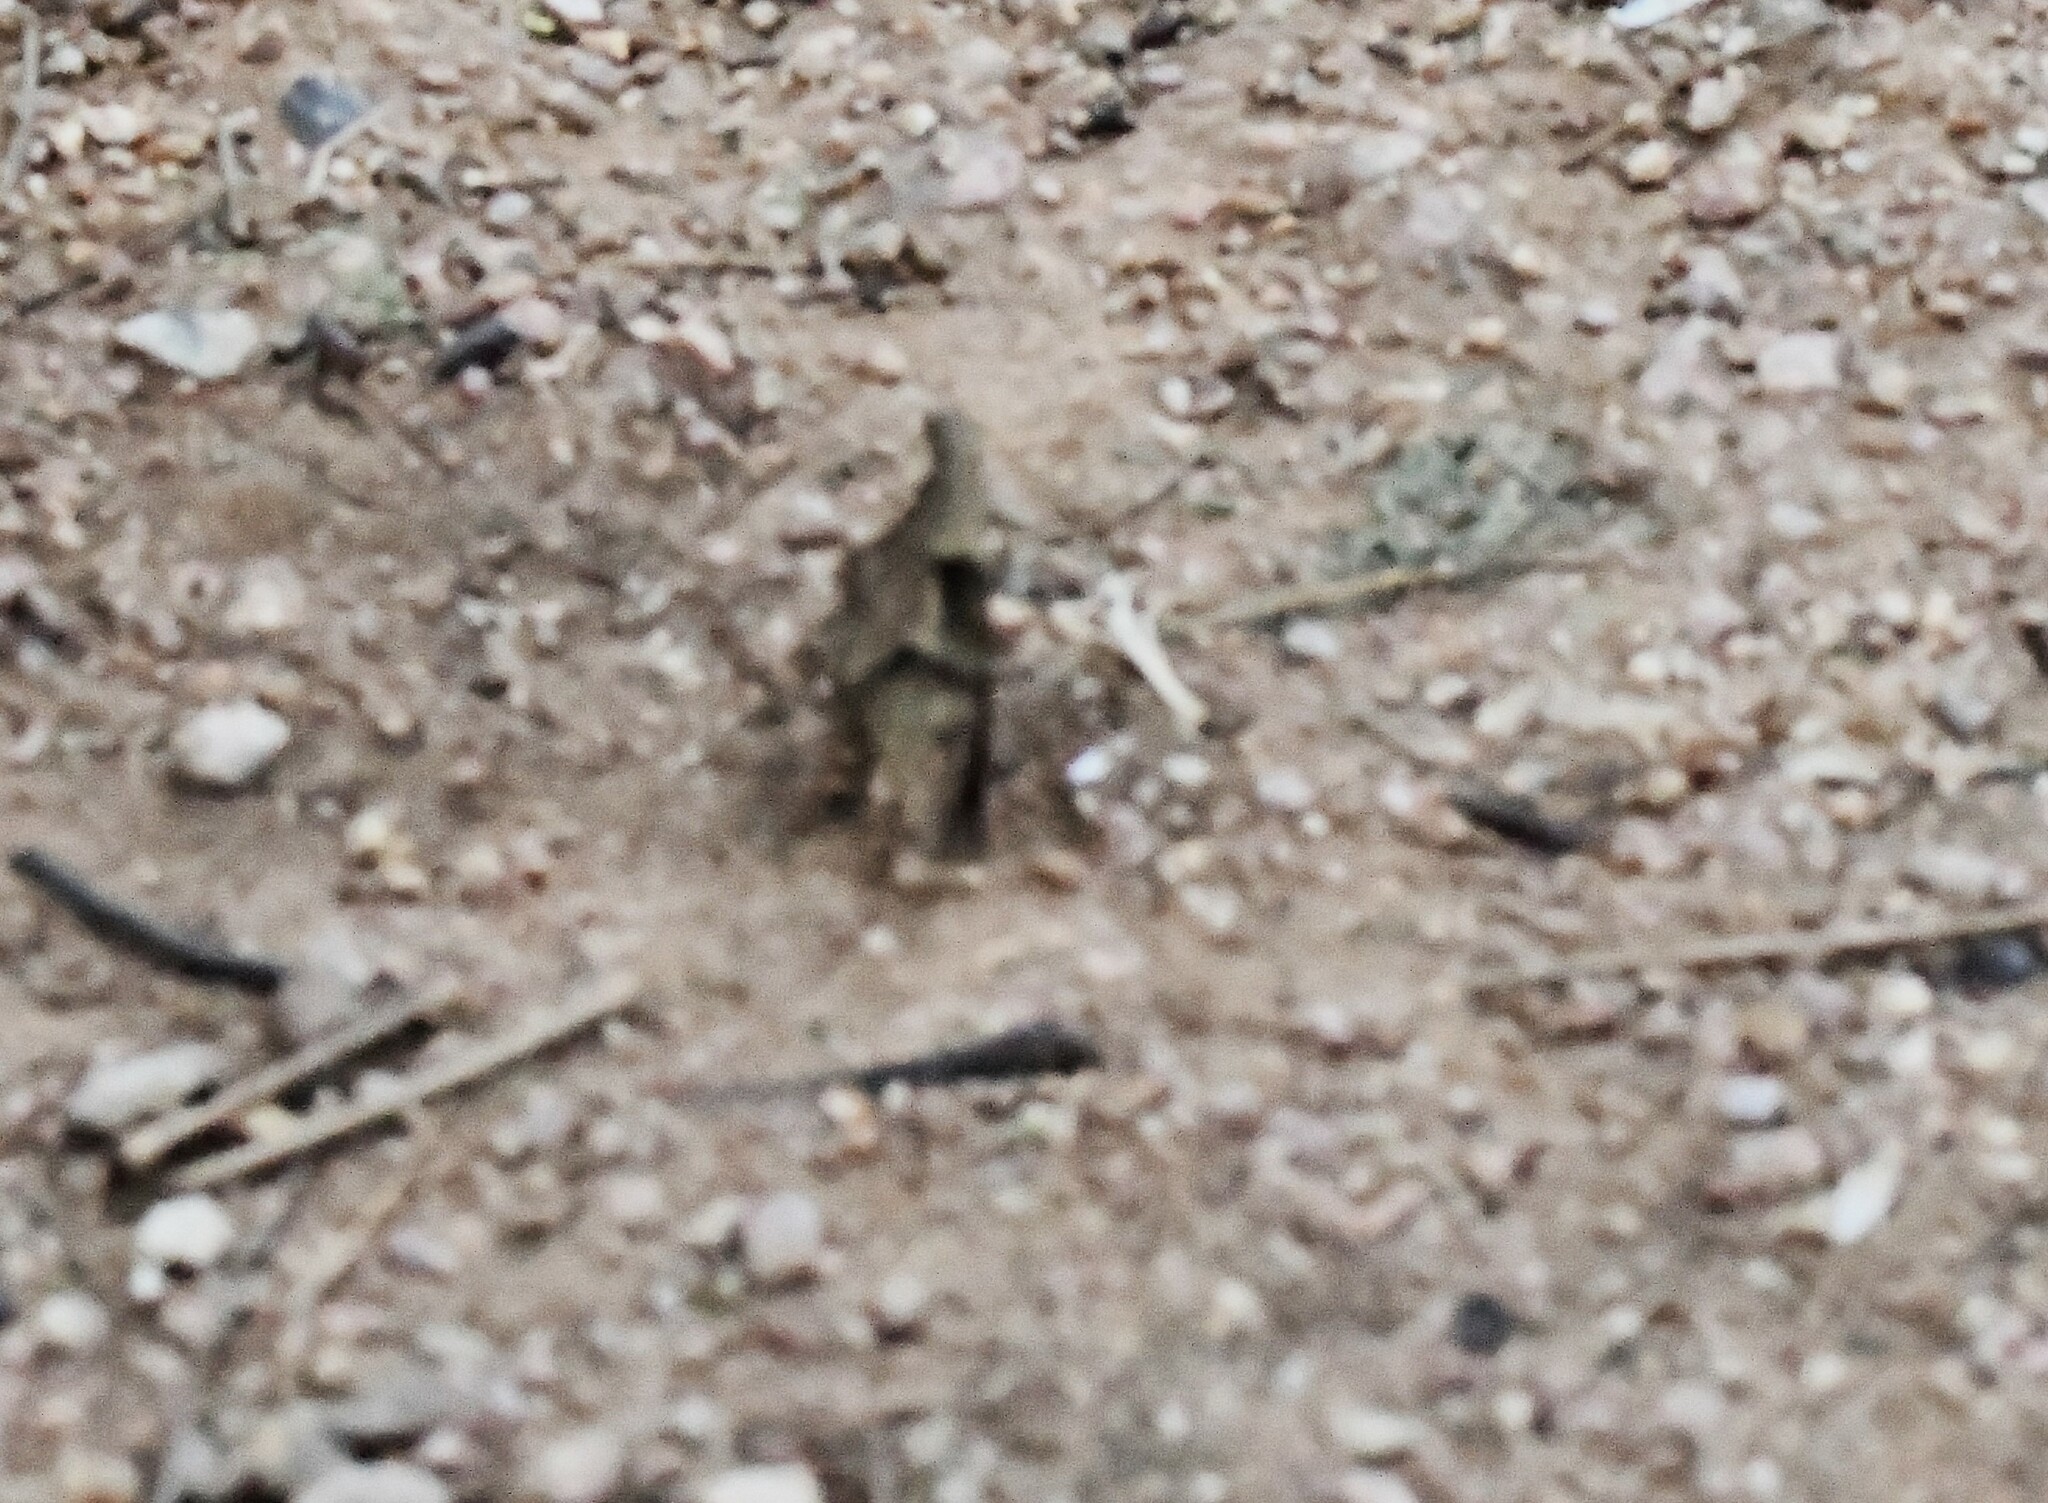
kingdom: Animalia
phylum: Arthropoda
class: Insecta
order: Lepidoptera
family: Nymphalidae
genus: Melanitis
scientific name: Melanitis leda
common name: Twilight brown
